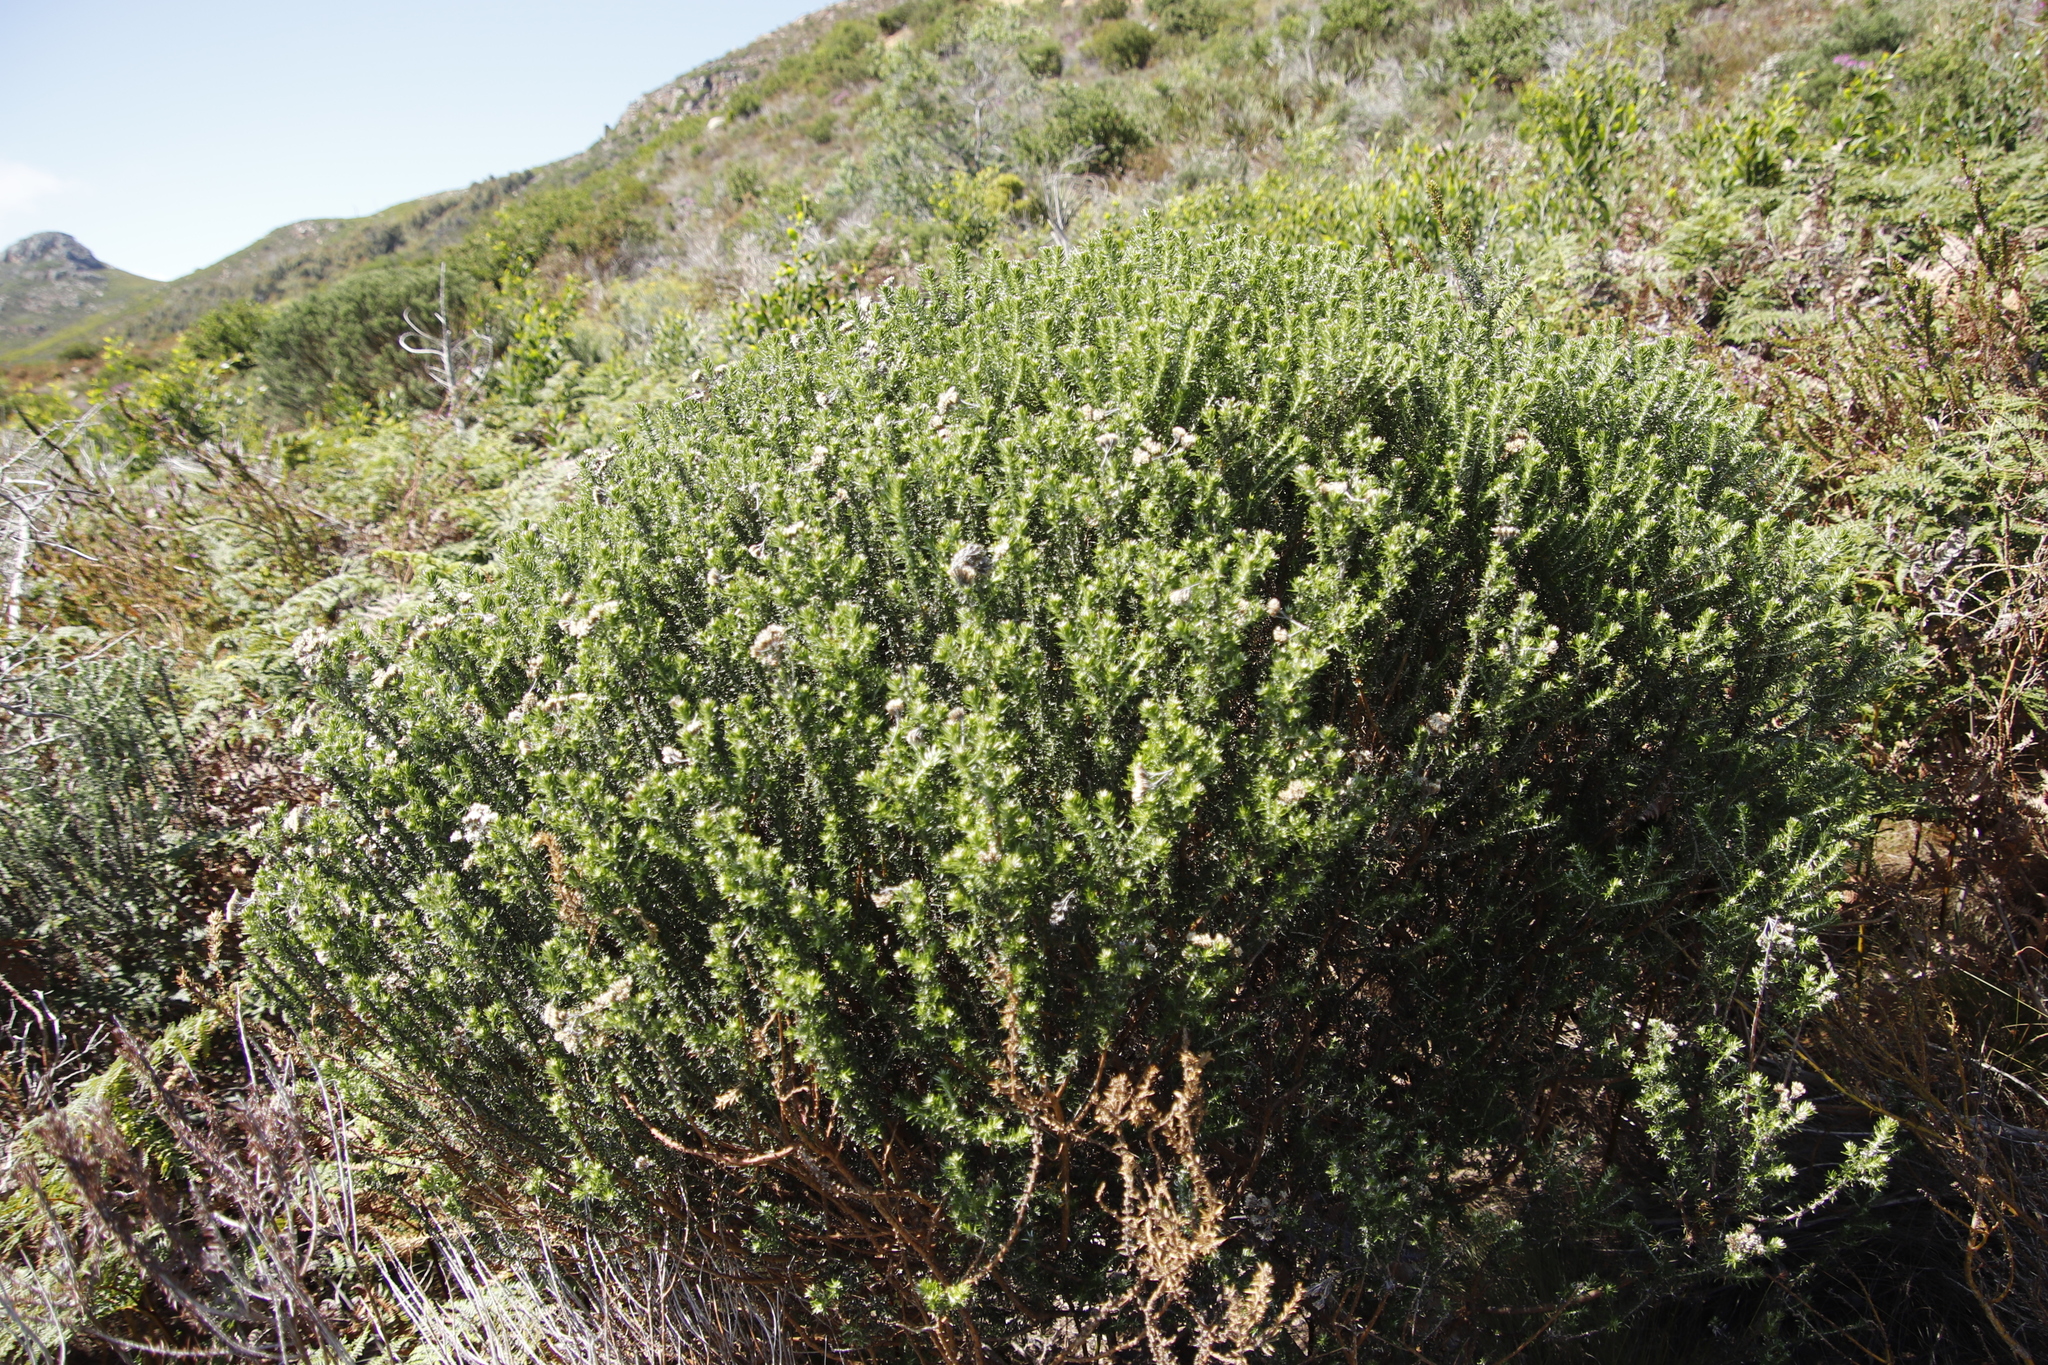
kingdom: Plantae
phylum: Tracheophyta
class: Magnoliopsida
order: Asterales
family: Asteraceae
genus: Metalasia
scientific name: Metalasia densa
